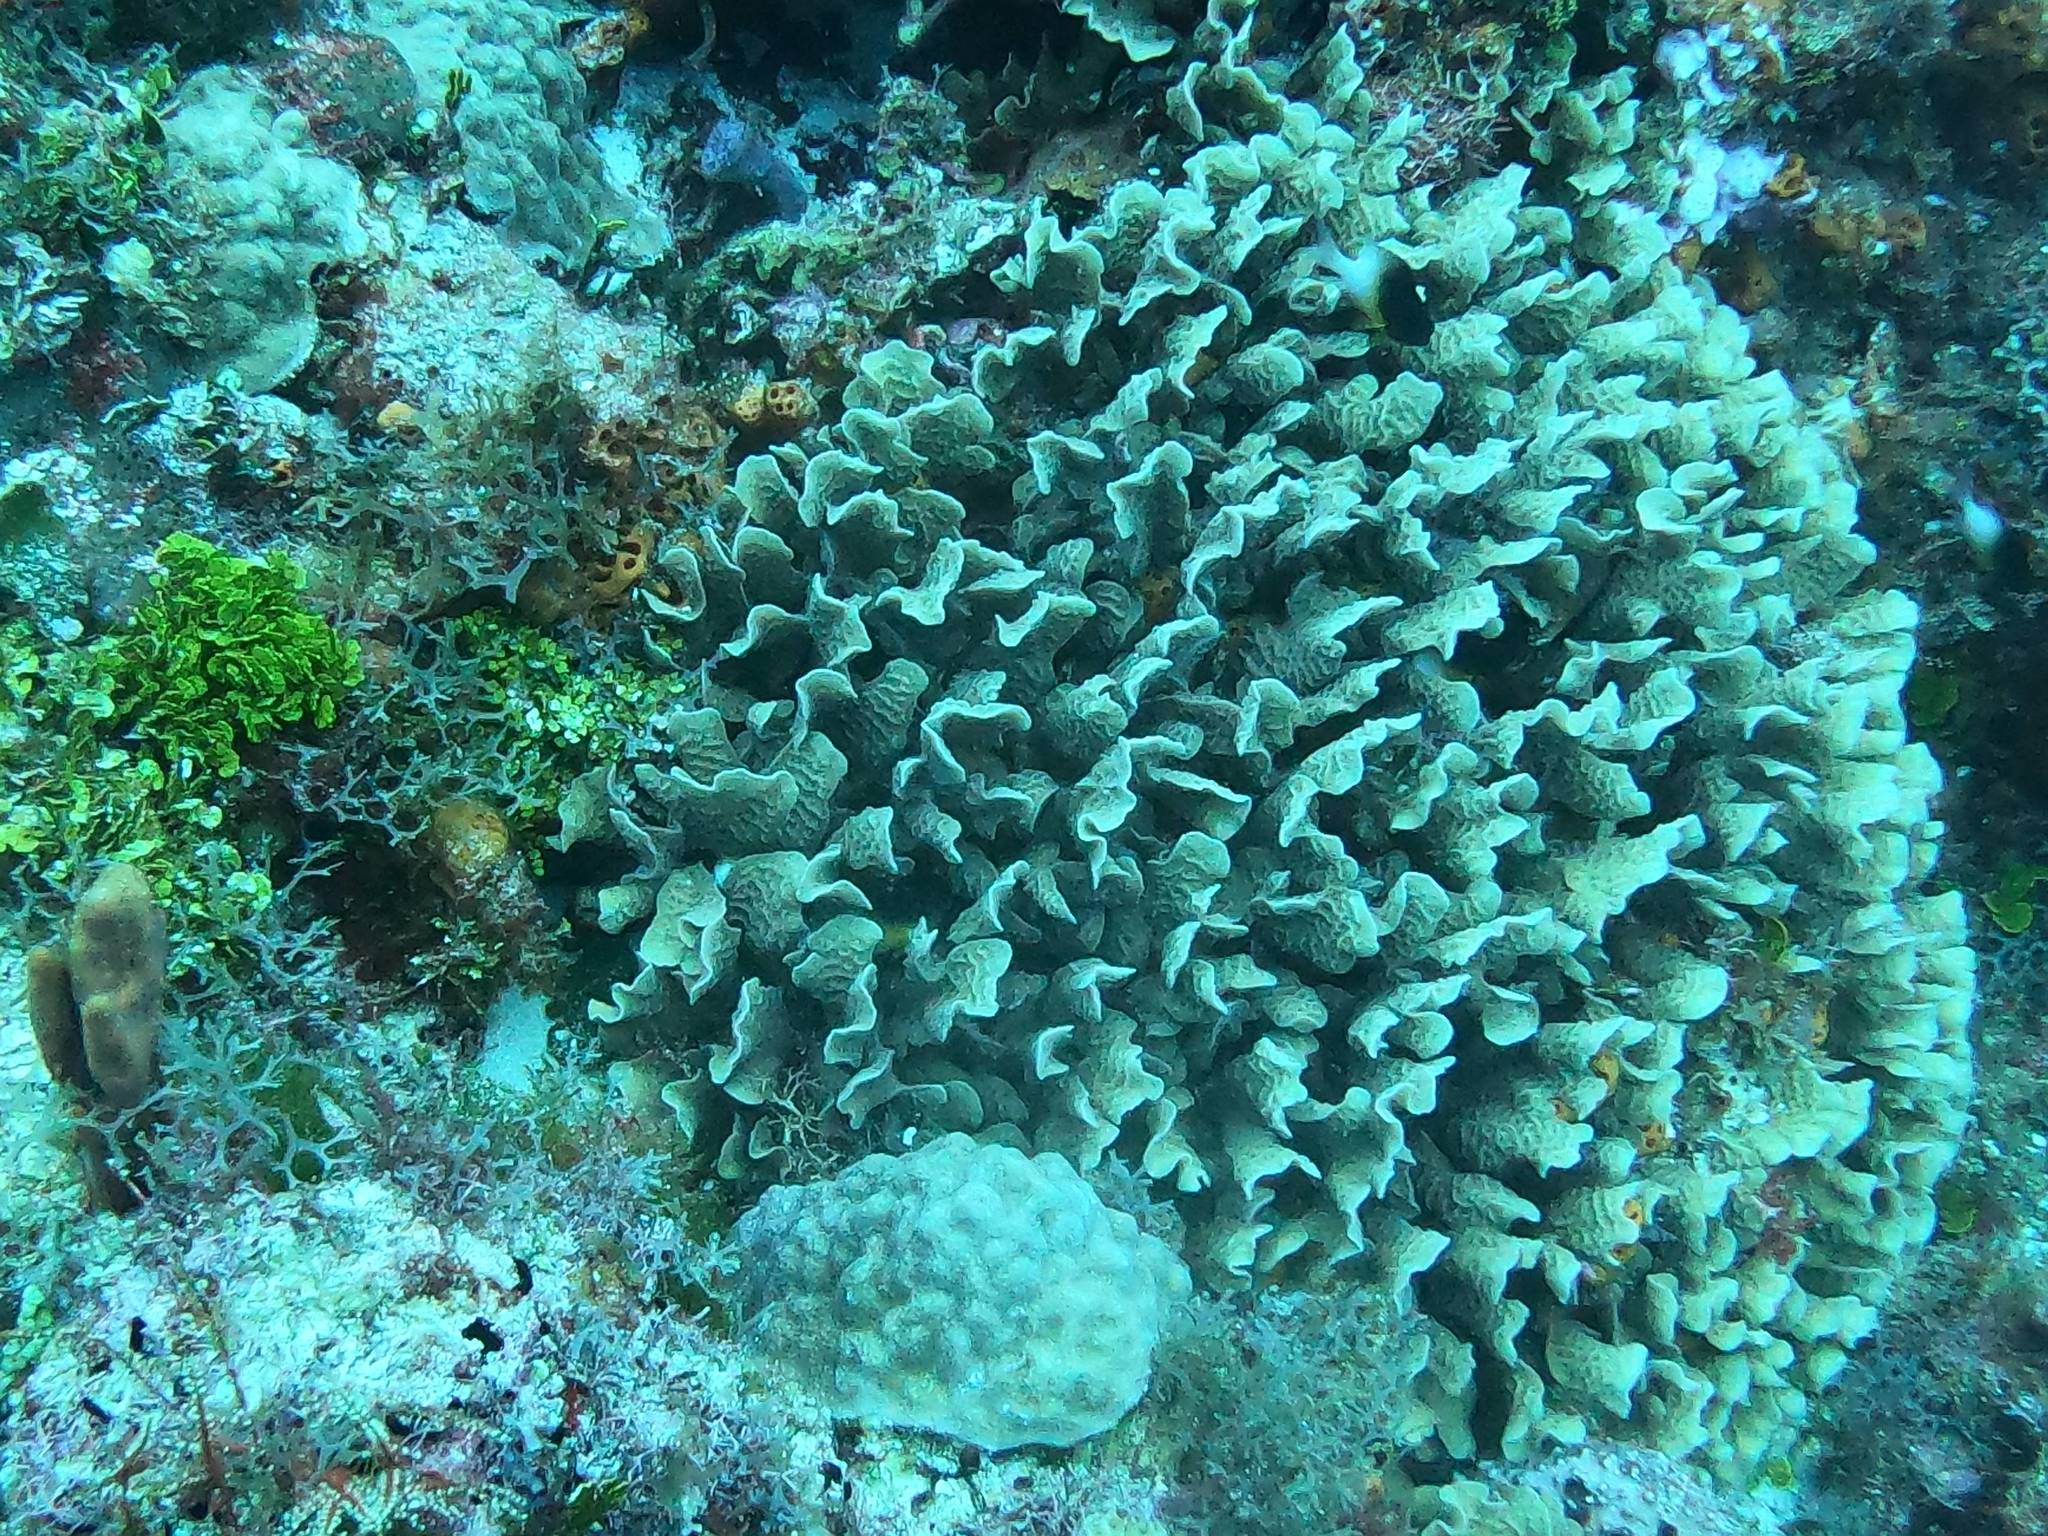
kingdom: Animalia
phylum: Cnidaria
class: Anthozoa
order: Scleractinia
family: Agariciidae
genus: Agaricia
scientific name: Agaricia tenuifolia
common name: Thin leaf lettuce coral
